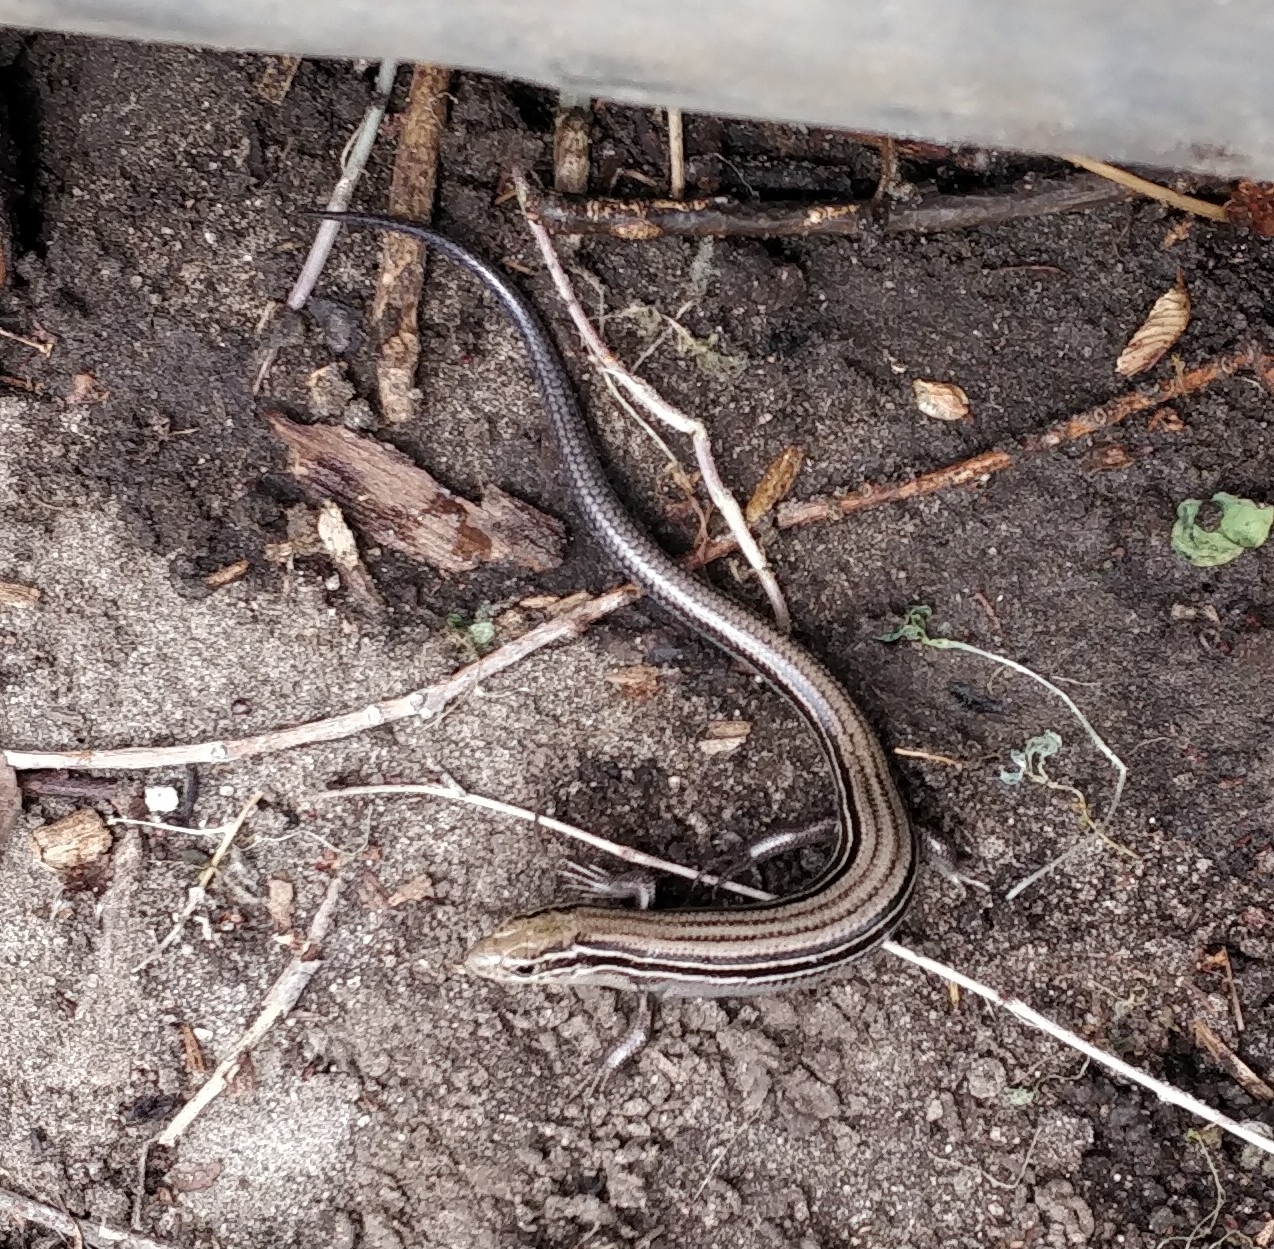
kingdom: Animalia
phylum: Chordata
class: Squamata
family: Scincidae
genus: Plestiodon
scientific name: Plestiodon septentrionalis
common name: Northern prairie skink
